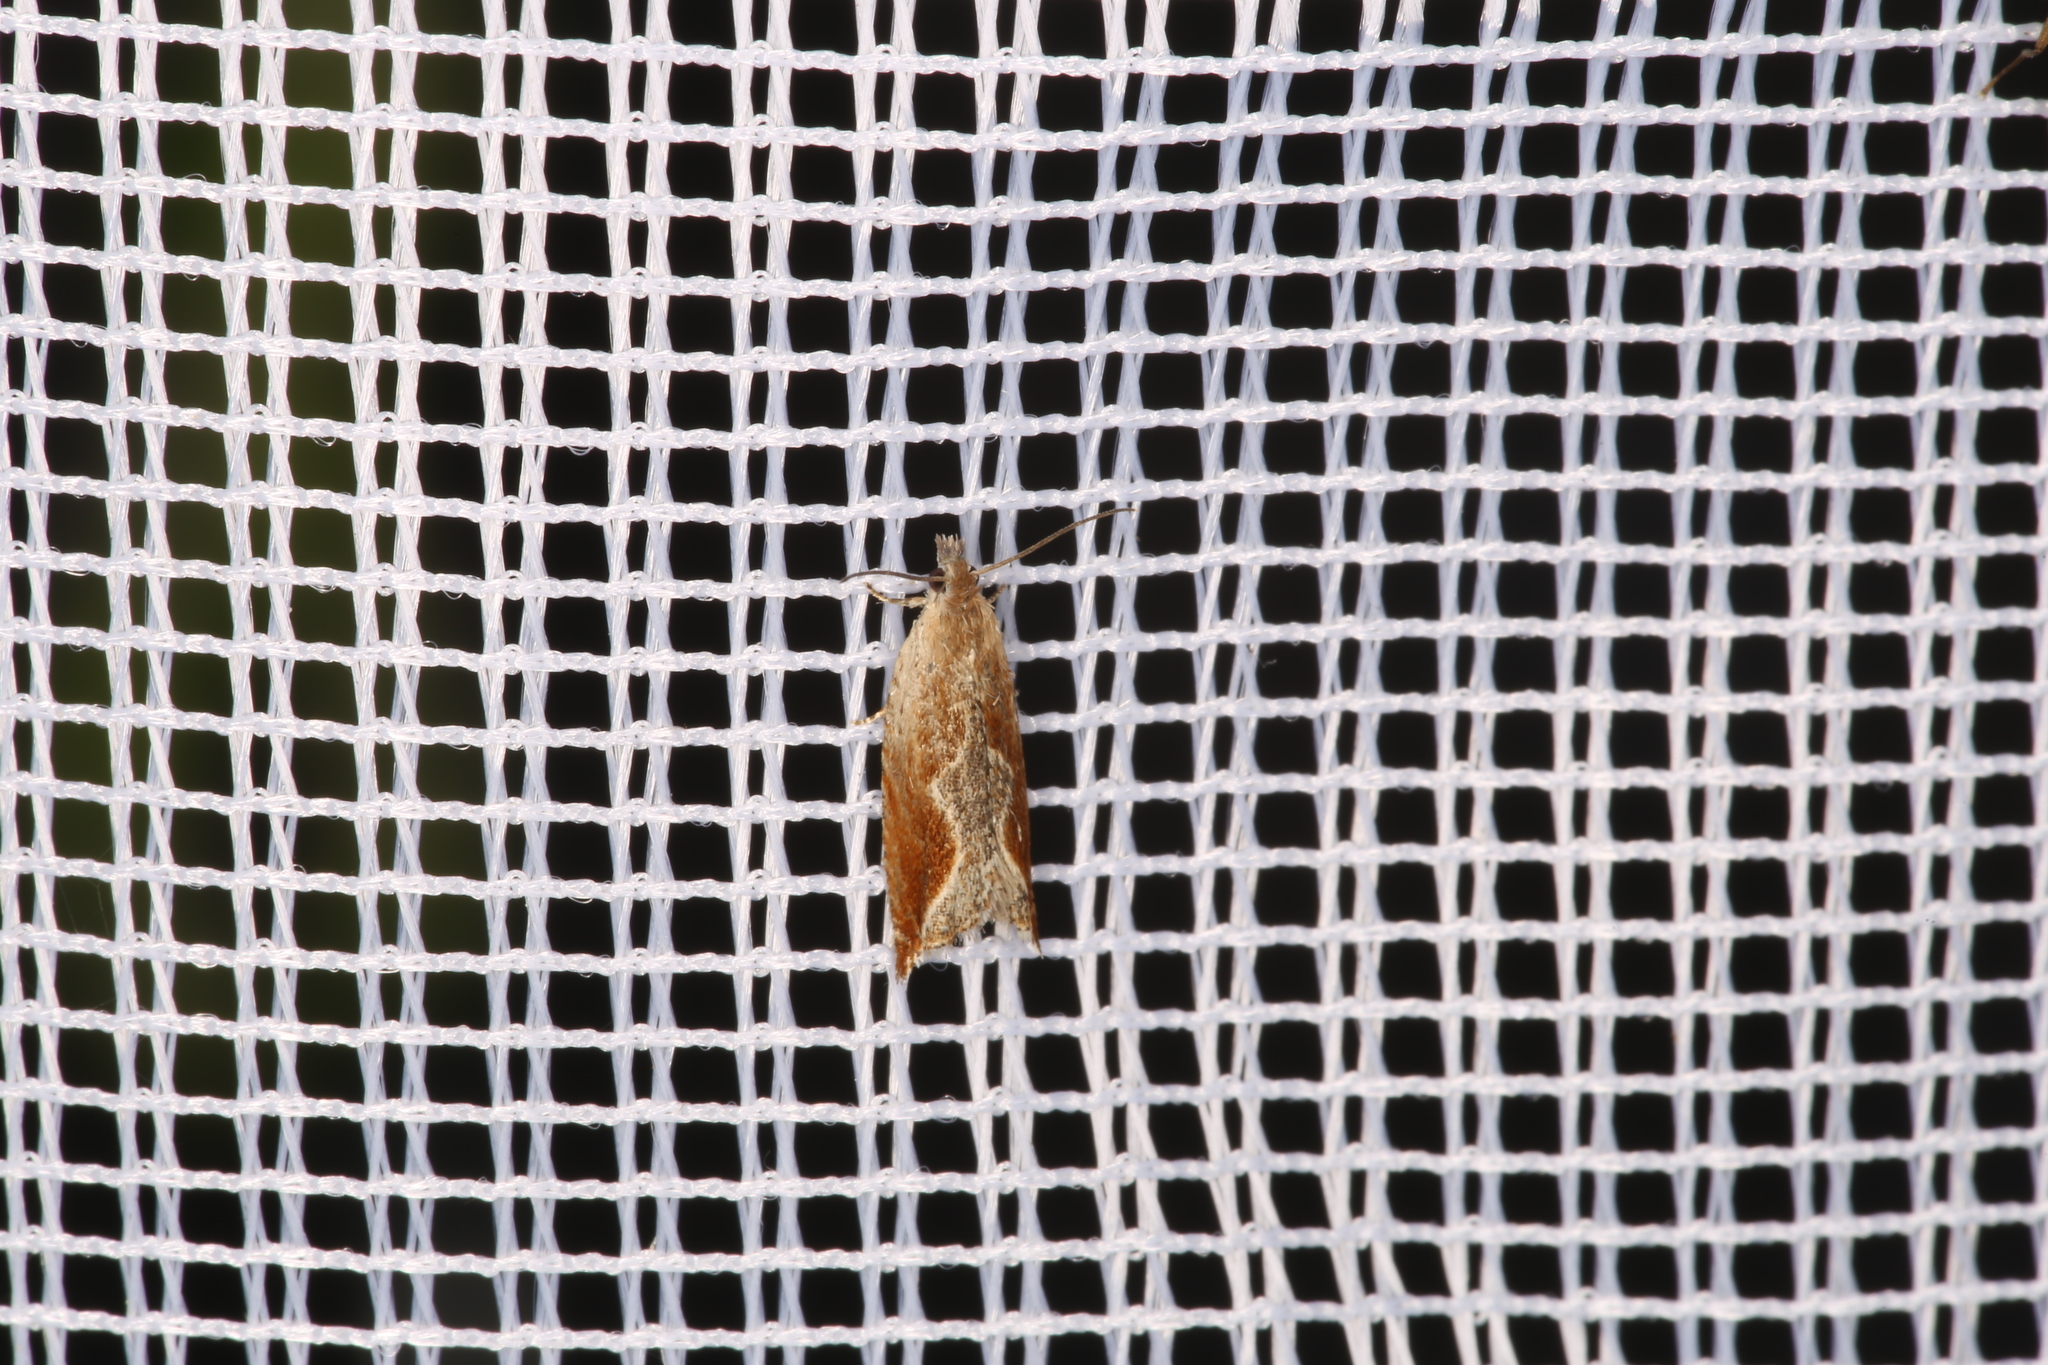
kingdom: Animalia
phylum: Arthropoda
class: Insecta
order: Lepidoptera
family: Tortricidae
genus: Ancylis
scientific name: Ancylis diminutana
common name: Small festooned roller
